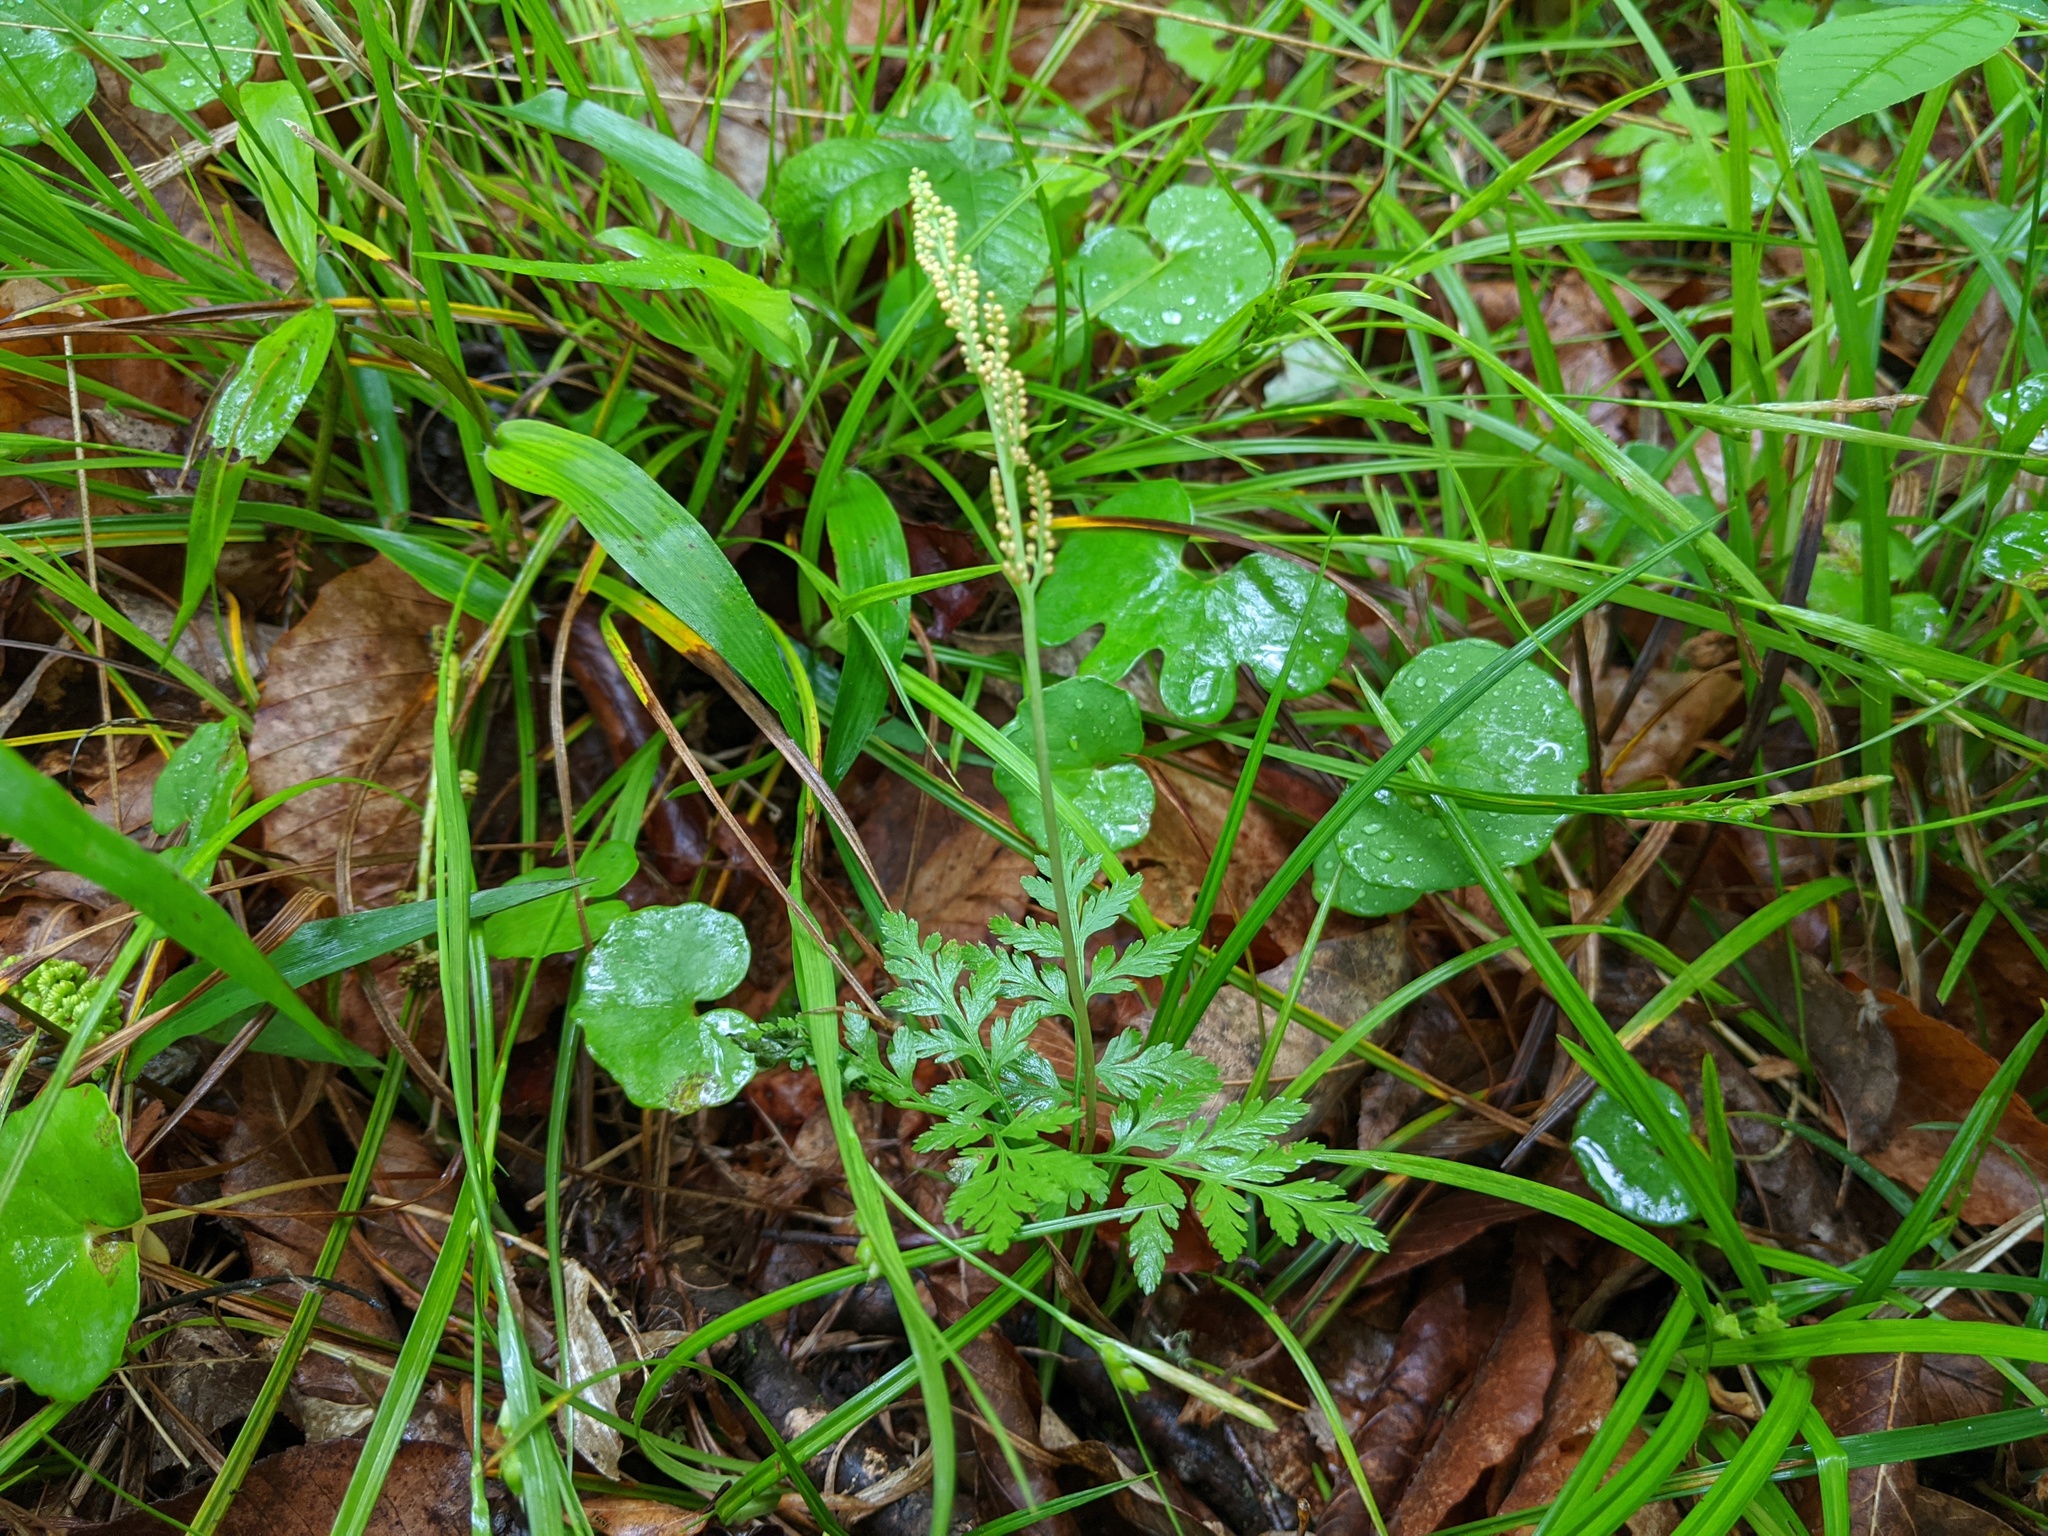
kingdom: Plantae
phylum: Tracheophyta
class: Polypodiopsida
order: Ophioglossales
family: Ophioglossaceae
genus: Botrypus
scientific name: Botrypus virginianus
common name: Common grapefern
